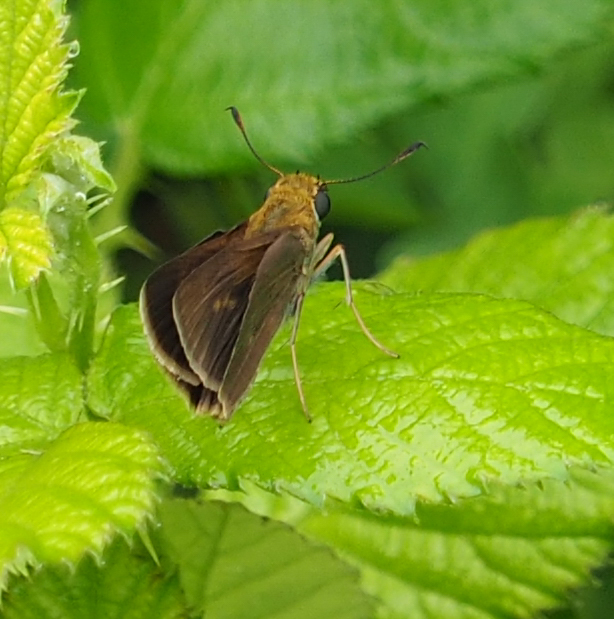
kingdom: Animalia
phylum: Arthropoda
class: Insecta
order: Lepidoptera
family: Hesperiidae
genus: Euphyes
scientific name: Euphyes vestris
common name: Dun skipper
